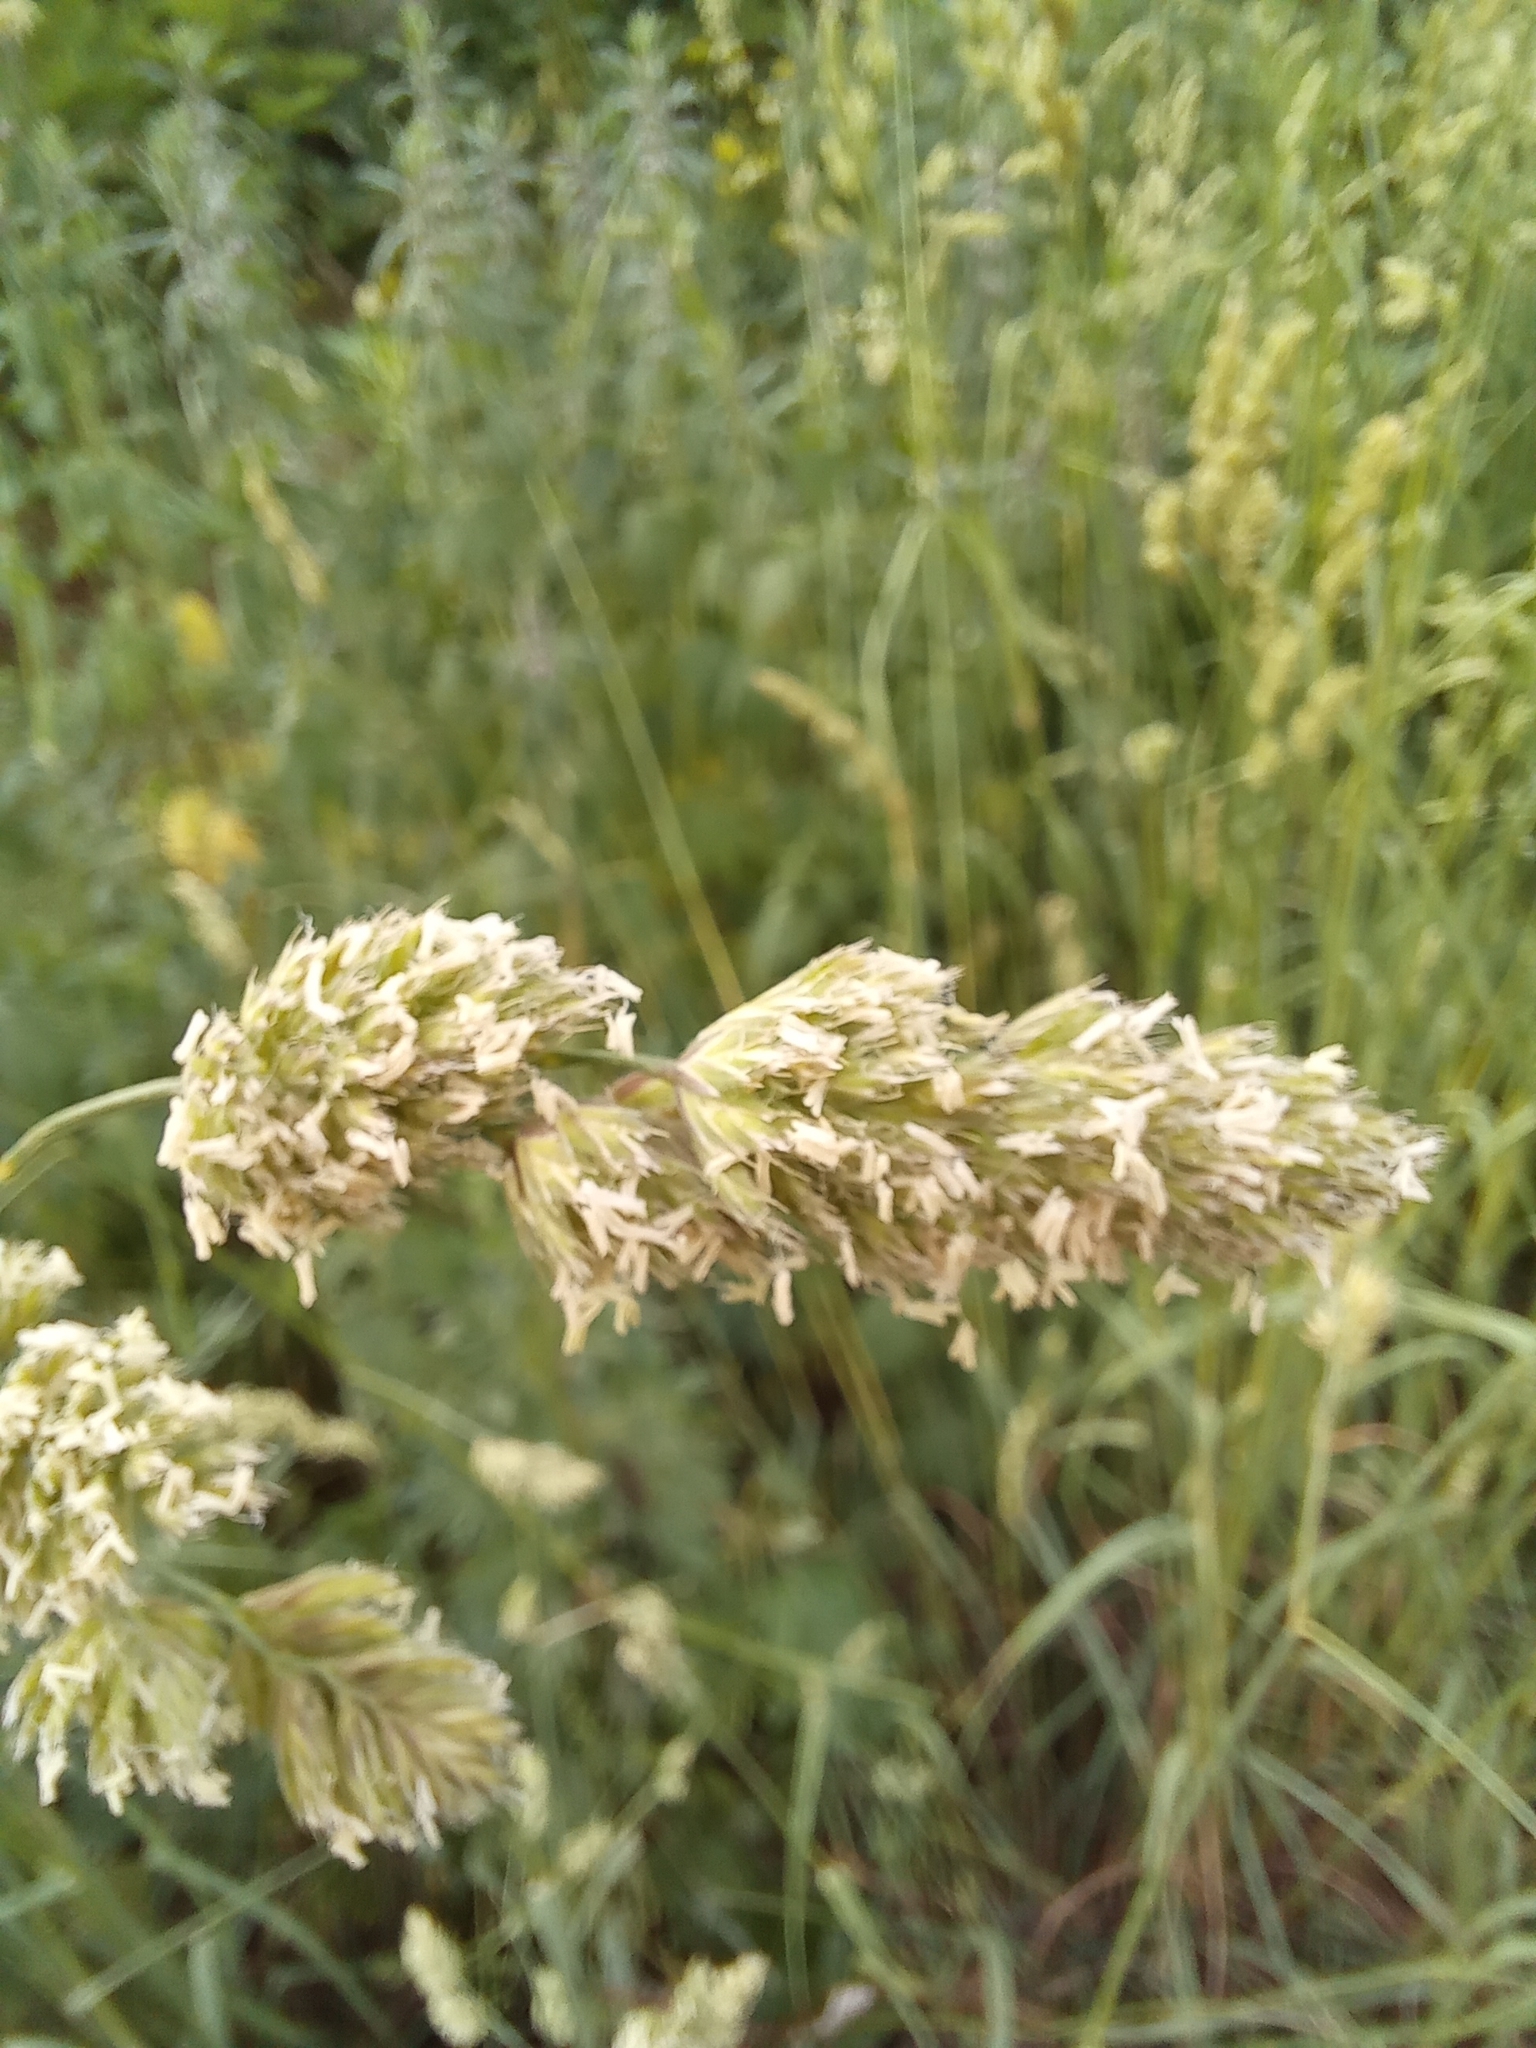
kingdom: Plantae
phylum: Tracheophyta
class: Liliopsida
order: Poales
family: Poaceae
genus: Dactylis
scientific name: Dactylis glomerata
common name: Orchardgrass
